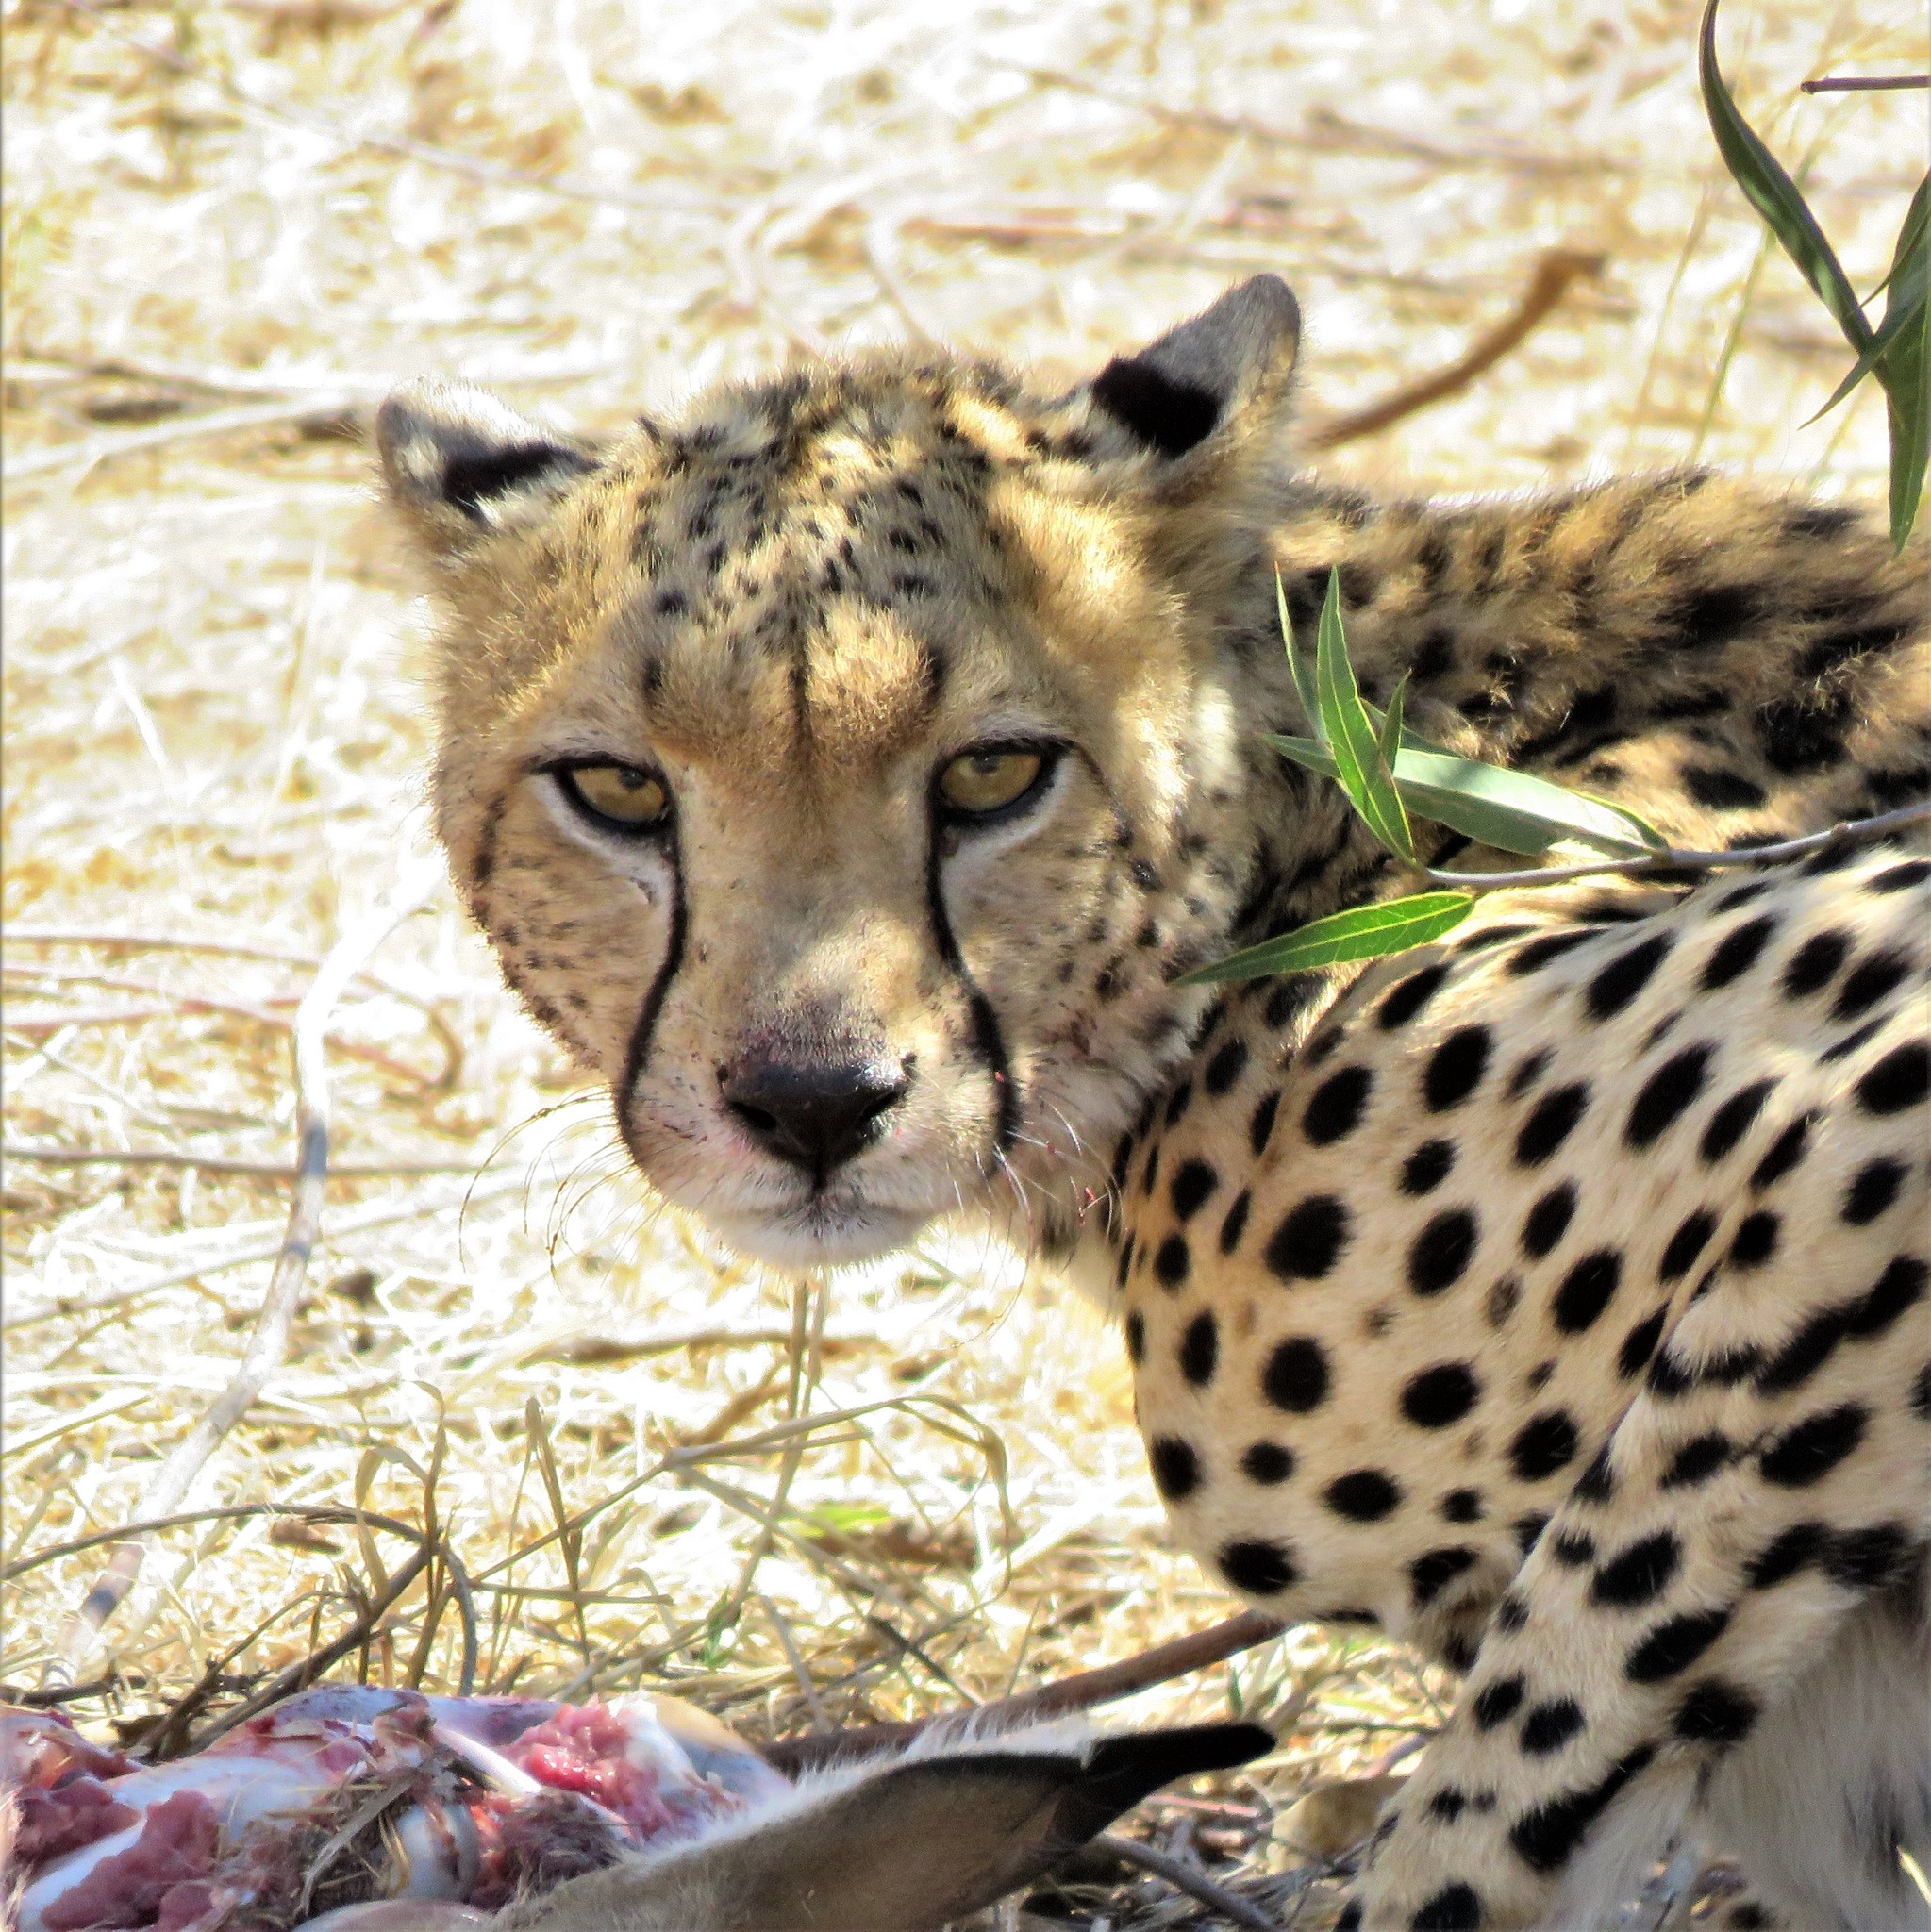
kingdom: Animalia
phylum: Chordata
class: Mammalia
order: Carnivora
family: Felidae
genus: Acinonyx
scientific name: Acinonyx jubatus
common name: Cheetah
